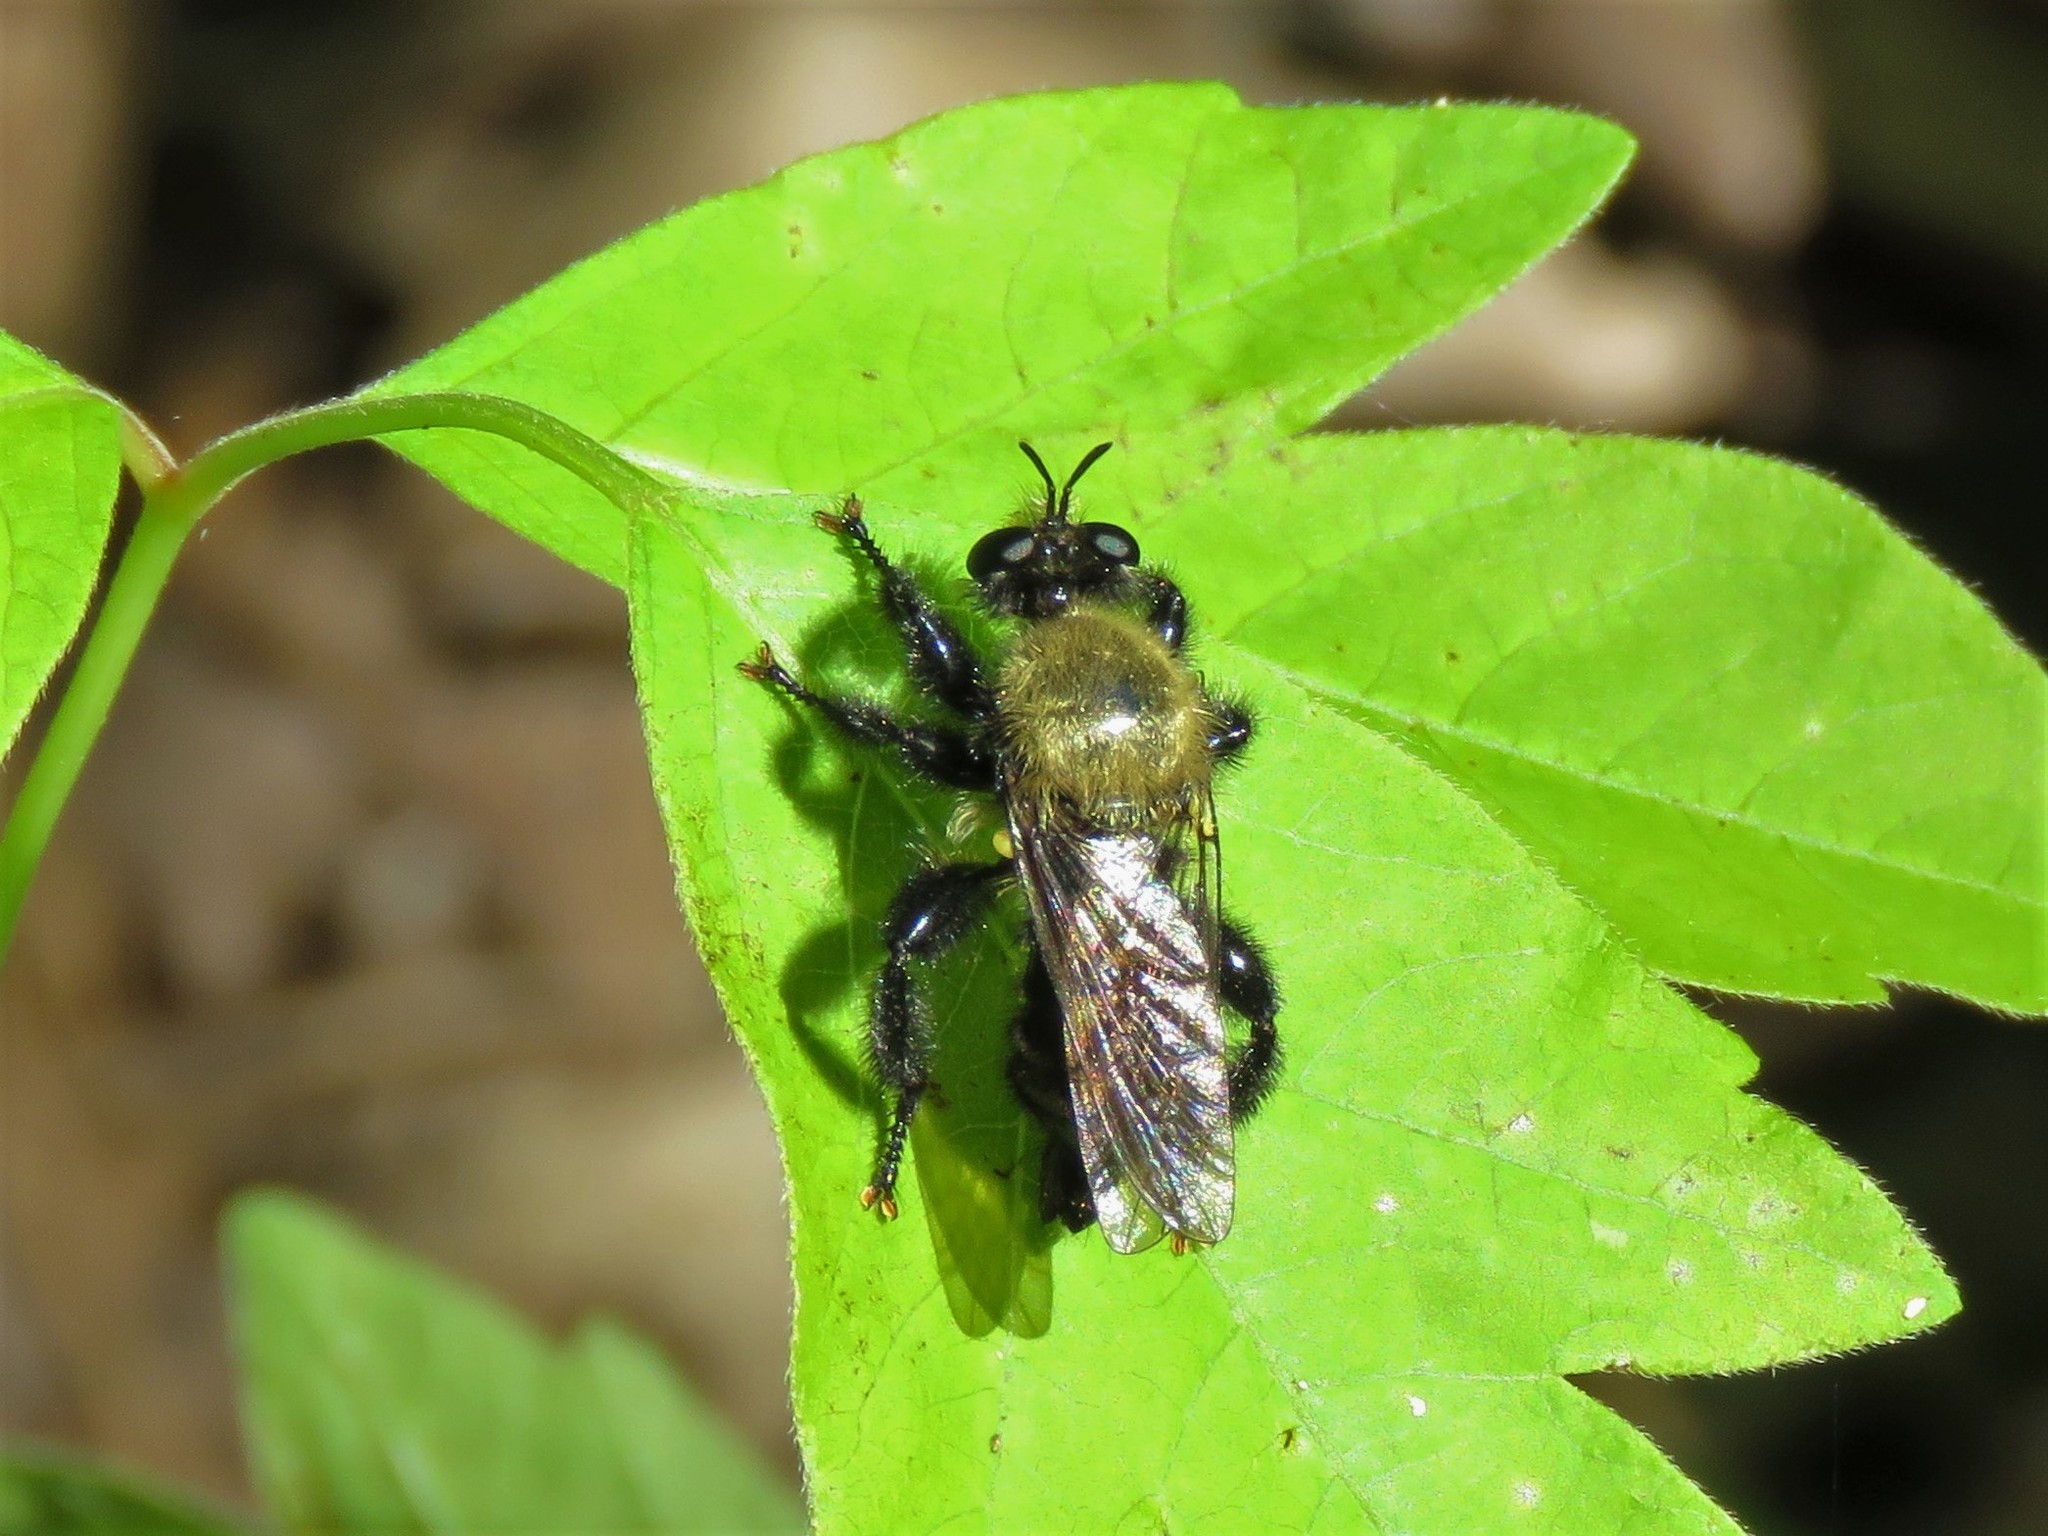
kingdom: Animalia
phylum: Arthropoda
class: Insecta
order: Diptera
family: Asilidae
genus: Laphria
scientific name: Laphria flavicollis
